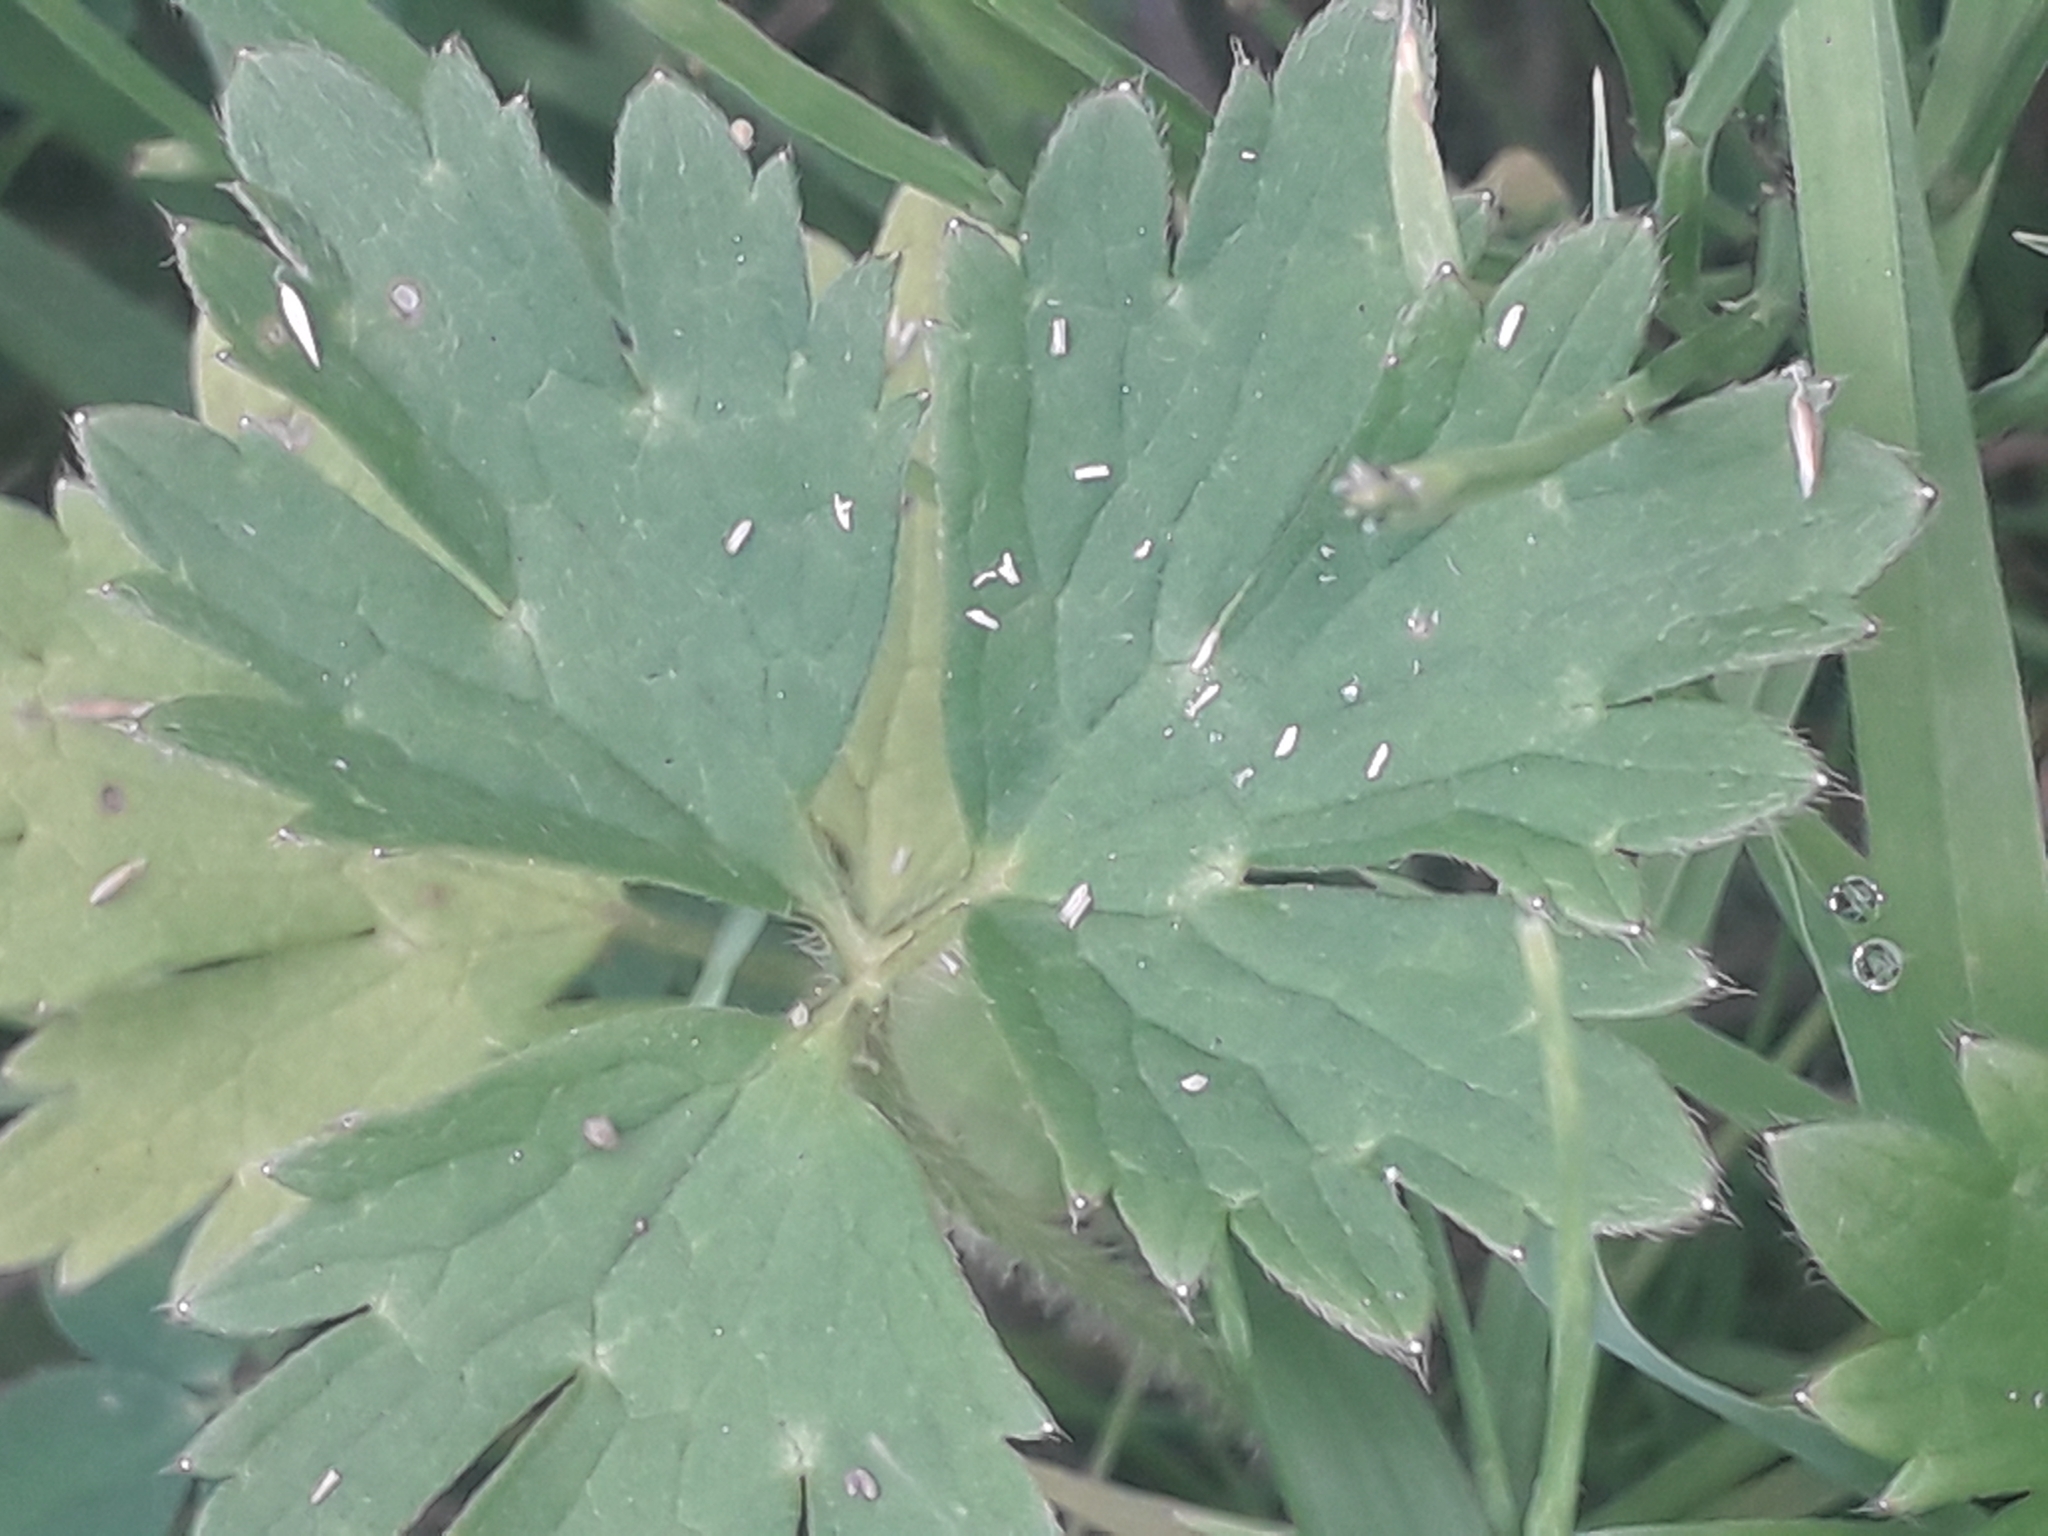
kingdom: Plantae
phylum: Tracheophyta
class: Magnoliopsida
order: Ranunculales
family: Ranunculaceae
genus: Ranunculus
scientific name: Ranunculus repens
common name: Creeping buttercup
